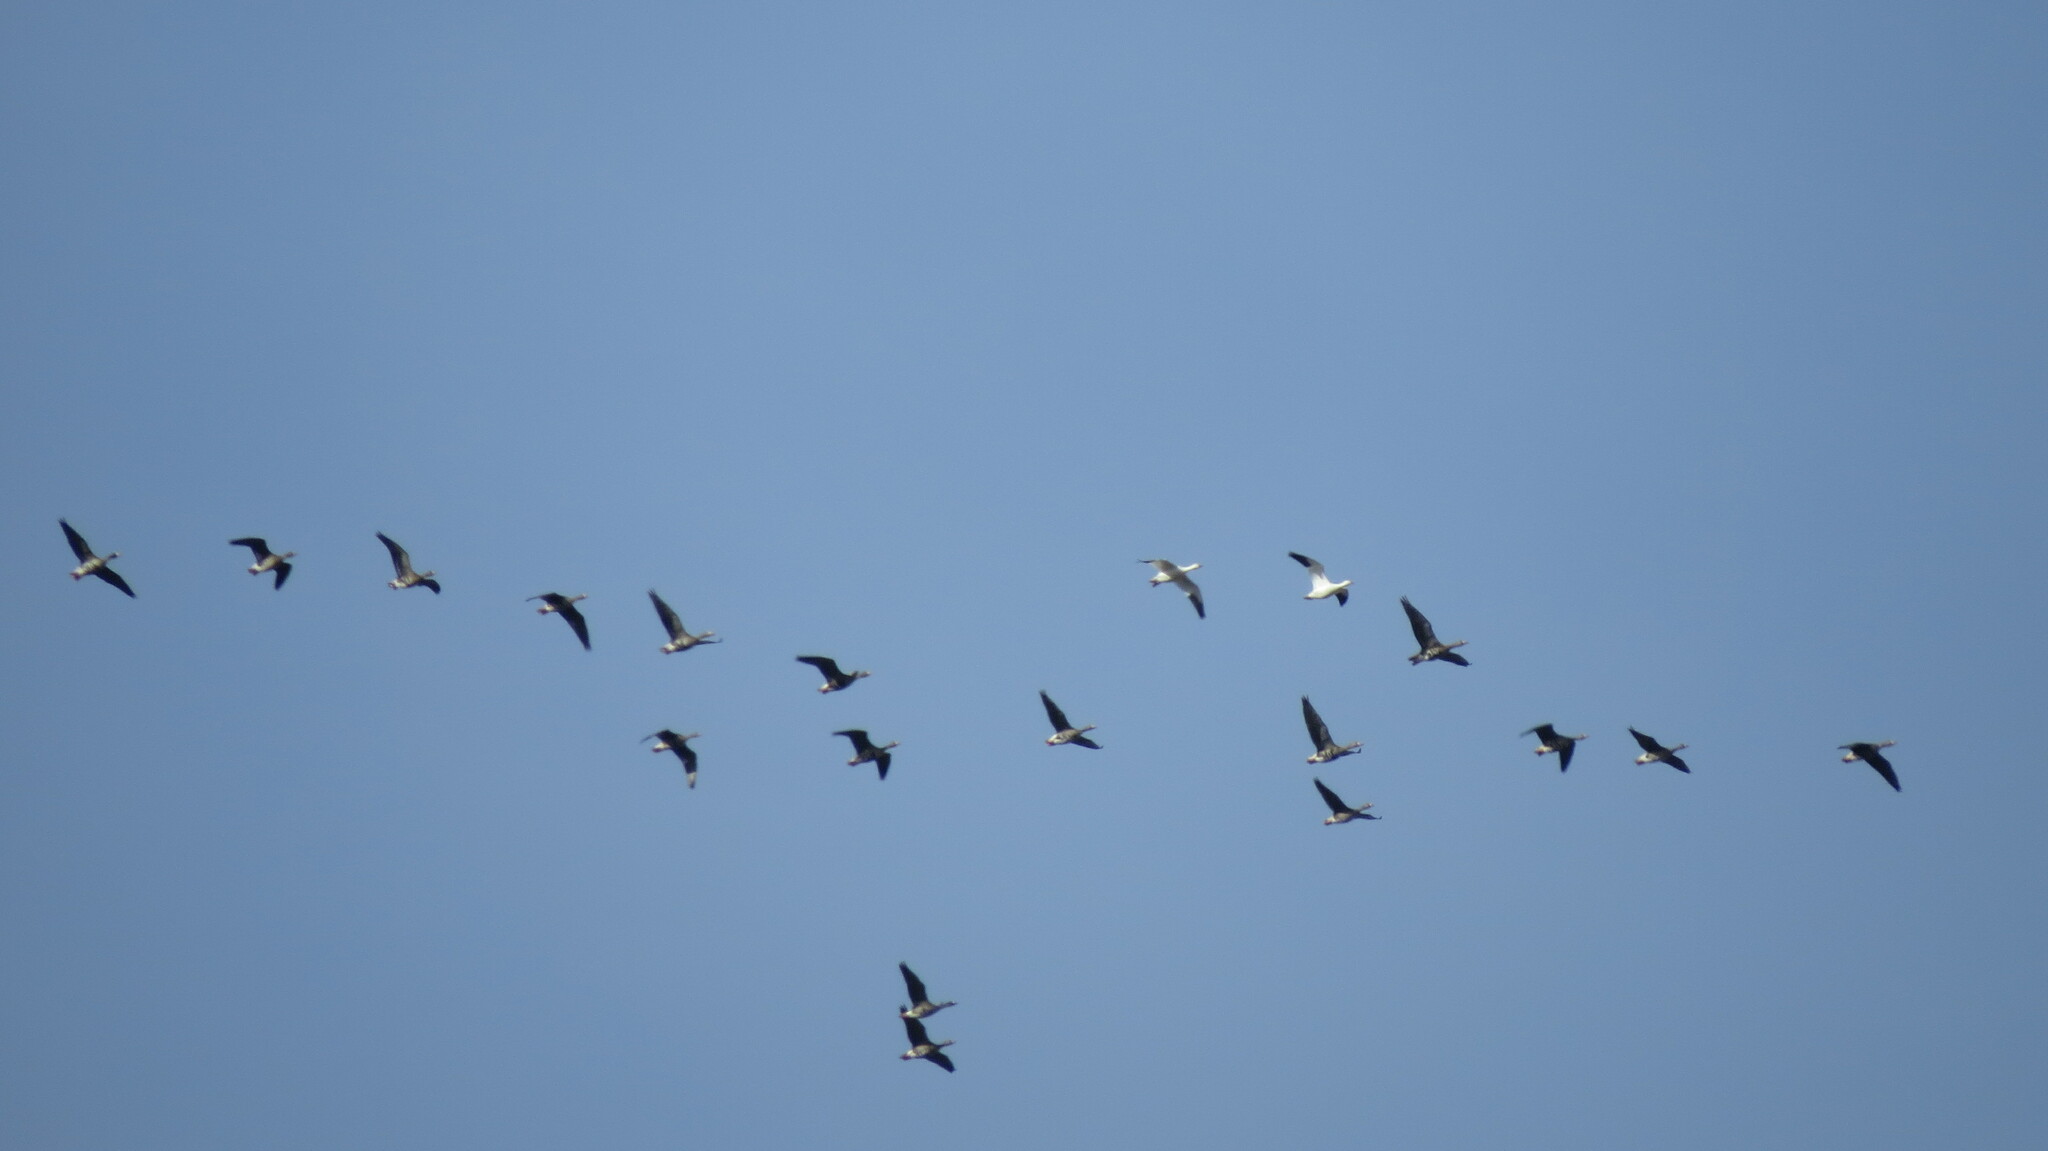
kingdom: Animalia
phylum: Chordata
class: Aves
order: Anseriformes
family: Anatidae
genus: Anser
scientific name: Anser caerulescens
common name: Snow goose
